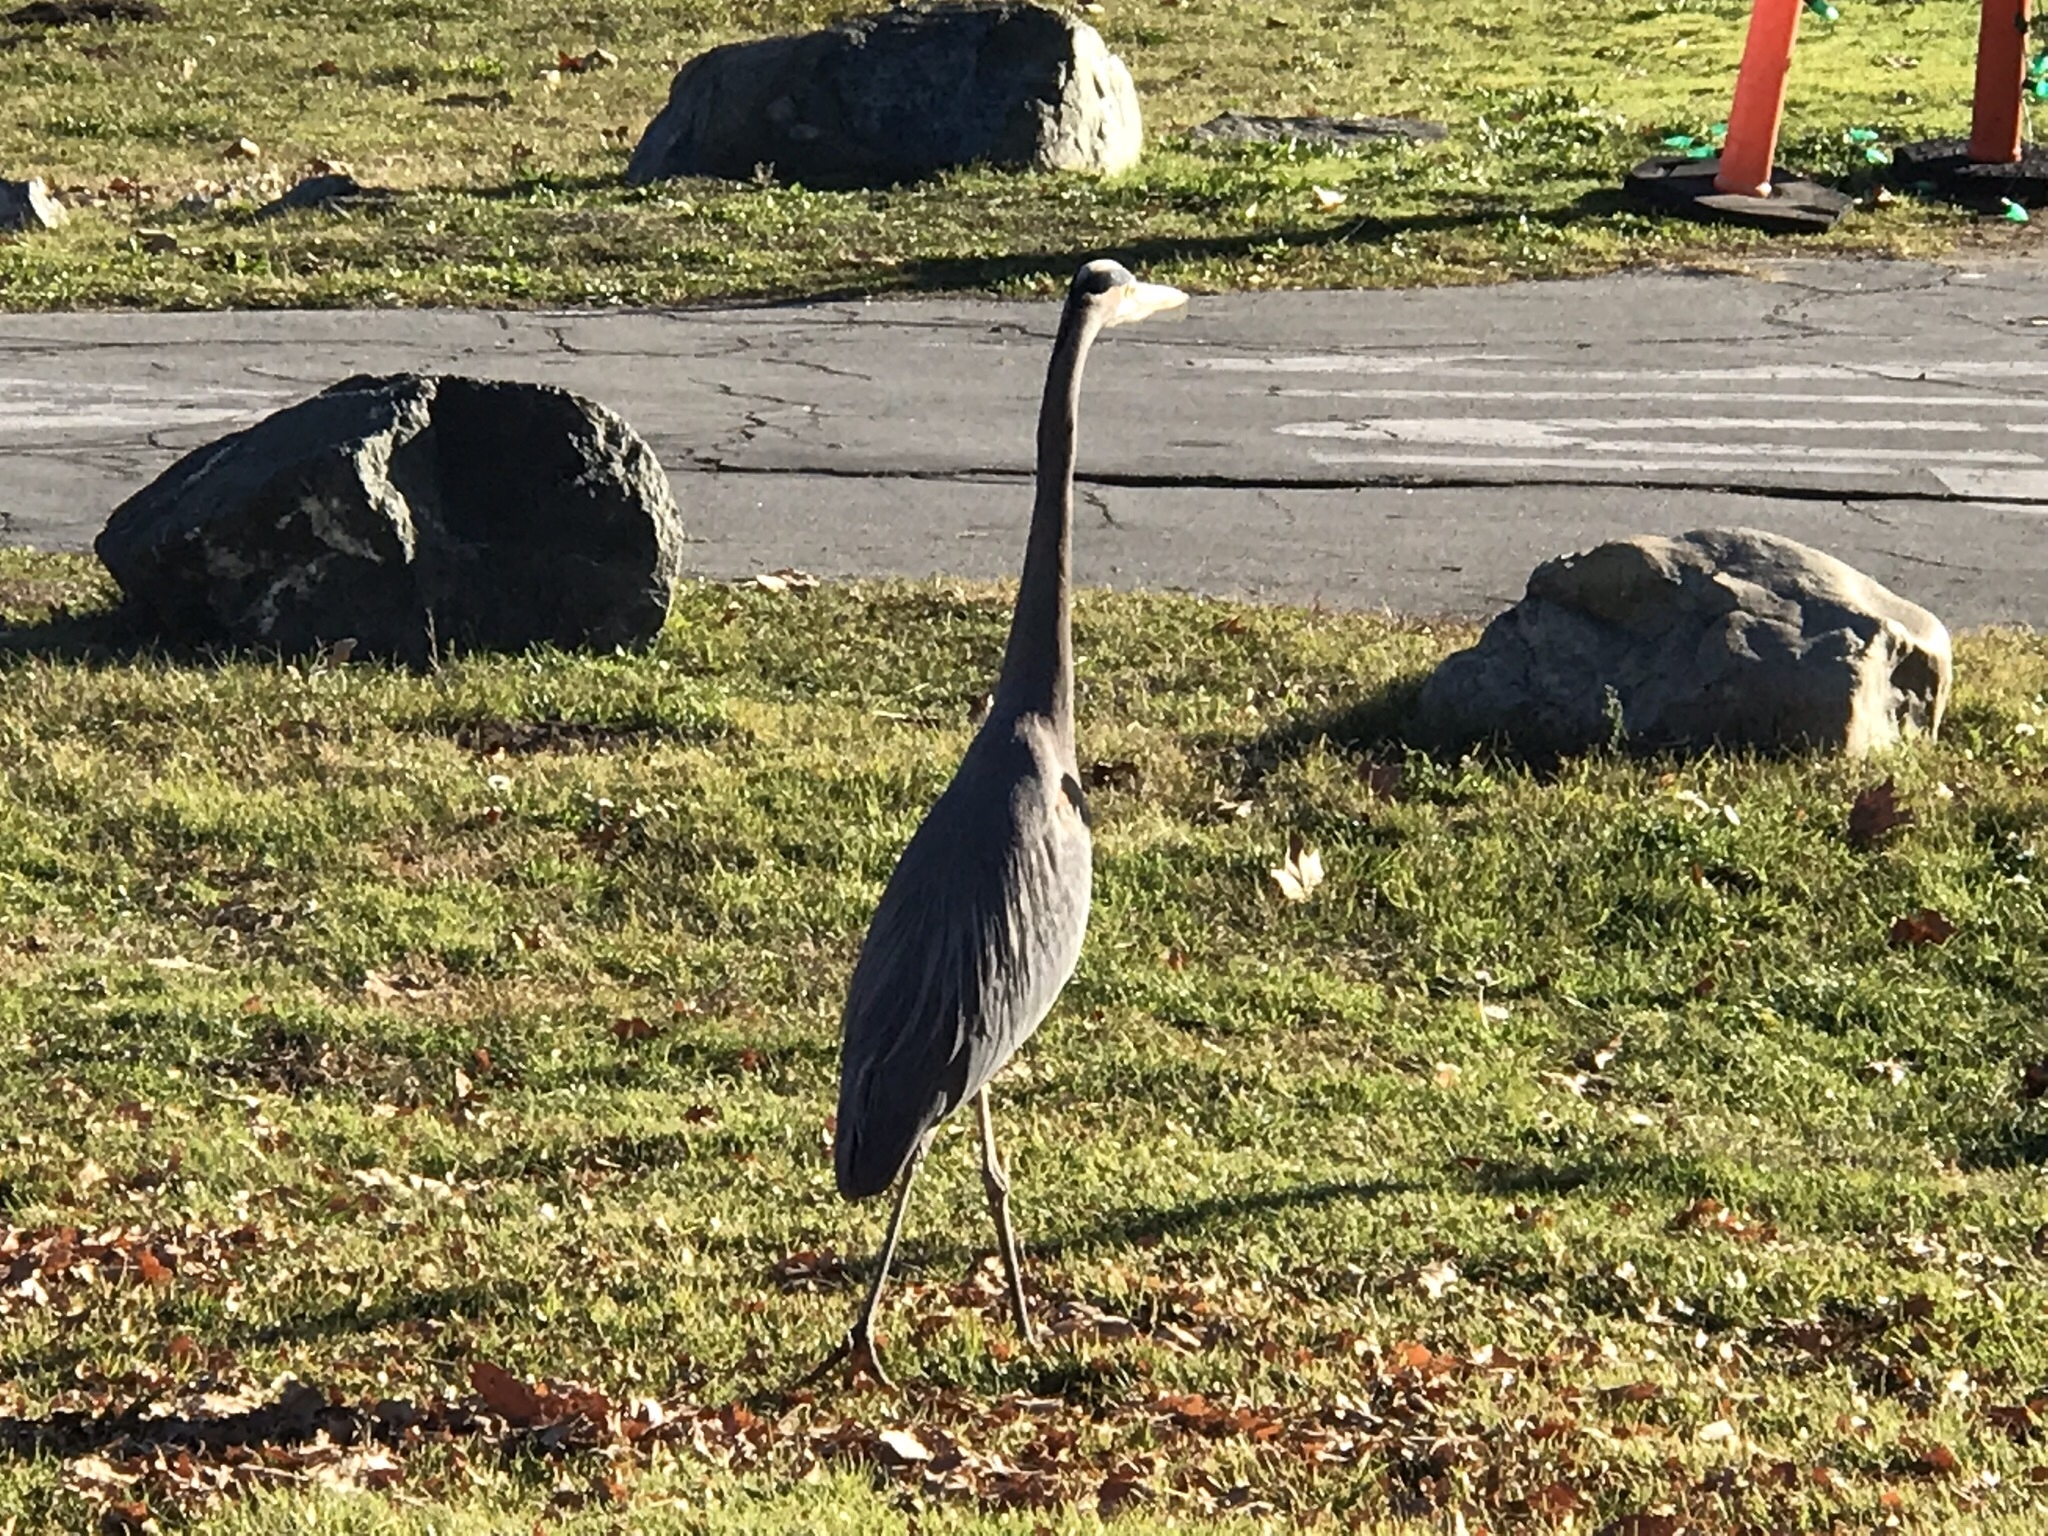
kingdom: Animalia
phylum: Chordata
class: Aves
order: Pelecaniformes
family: Ardeidae
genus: Ardea
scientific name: Ardea herodias
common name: Great blue heron
